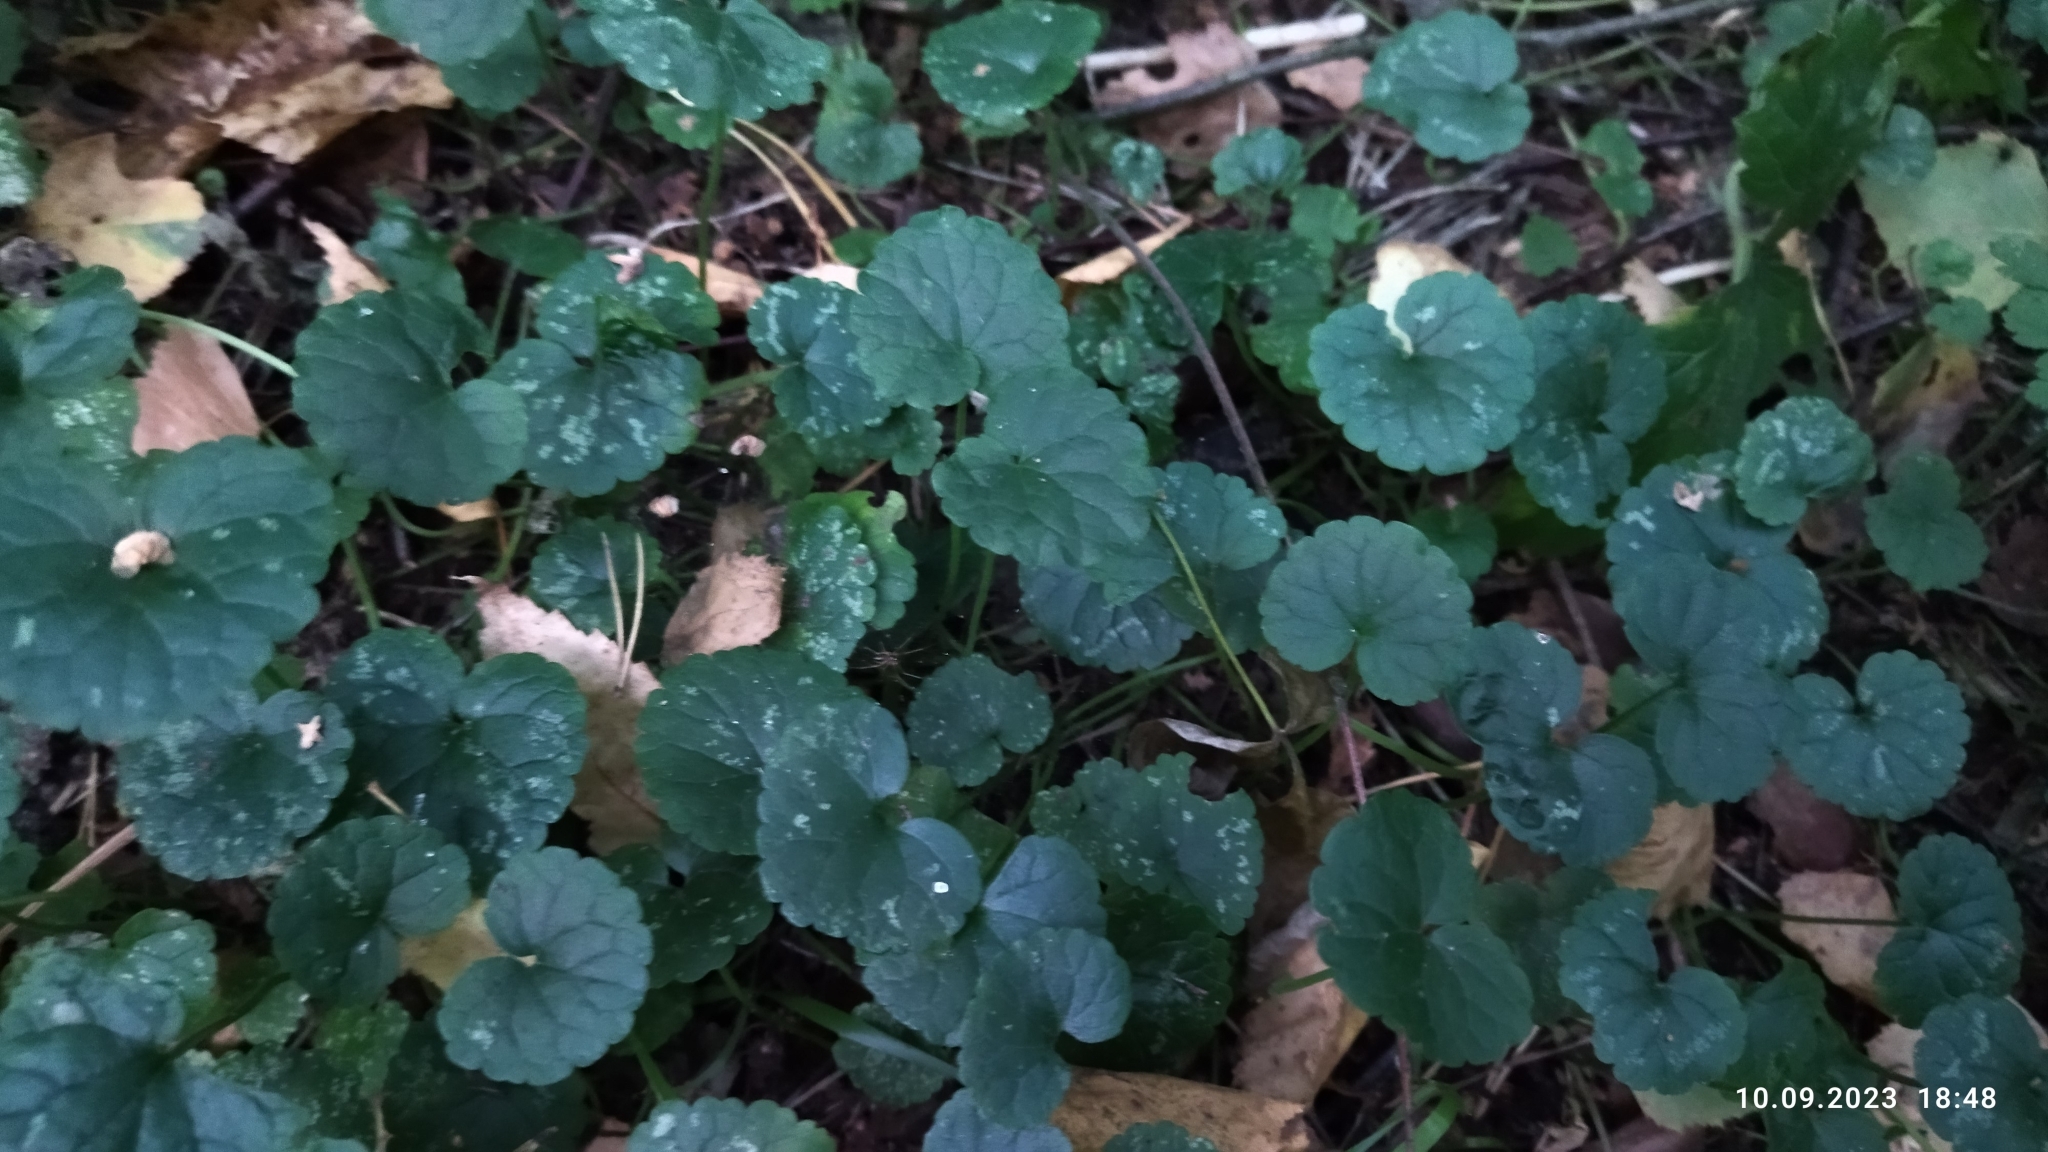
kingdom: Plantae
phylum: Tracheophyta
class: Magnoliopsida
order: Lamiales
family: Lamiaceae
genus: Glechoma
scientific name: Glechoma hederacea
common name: Ground ivy
